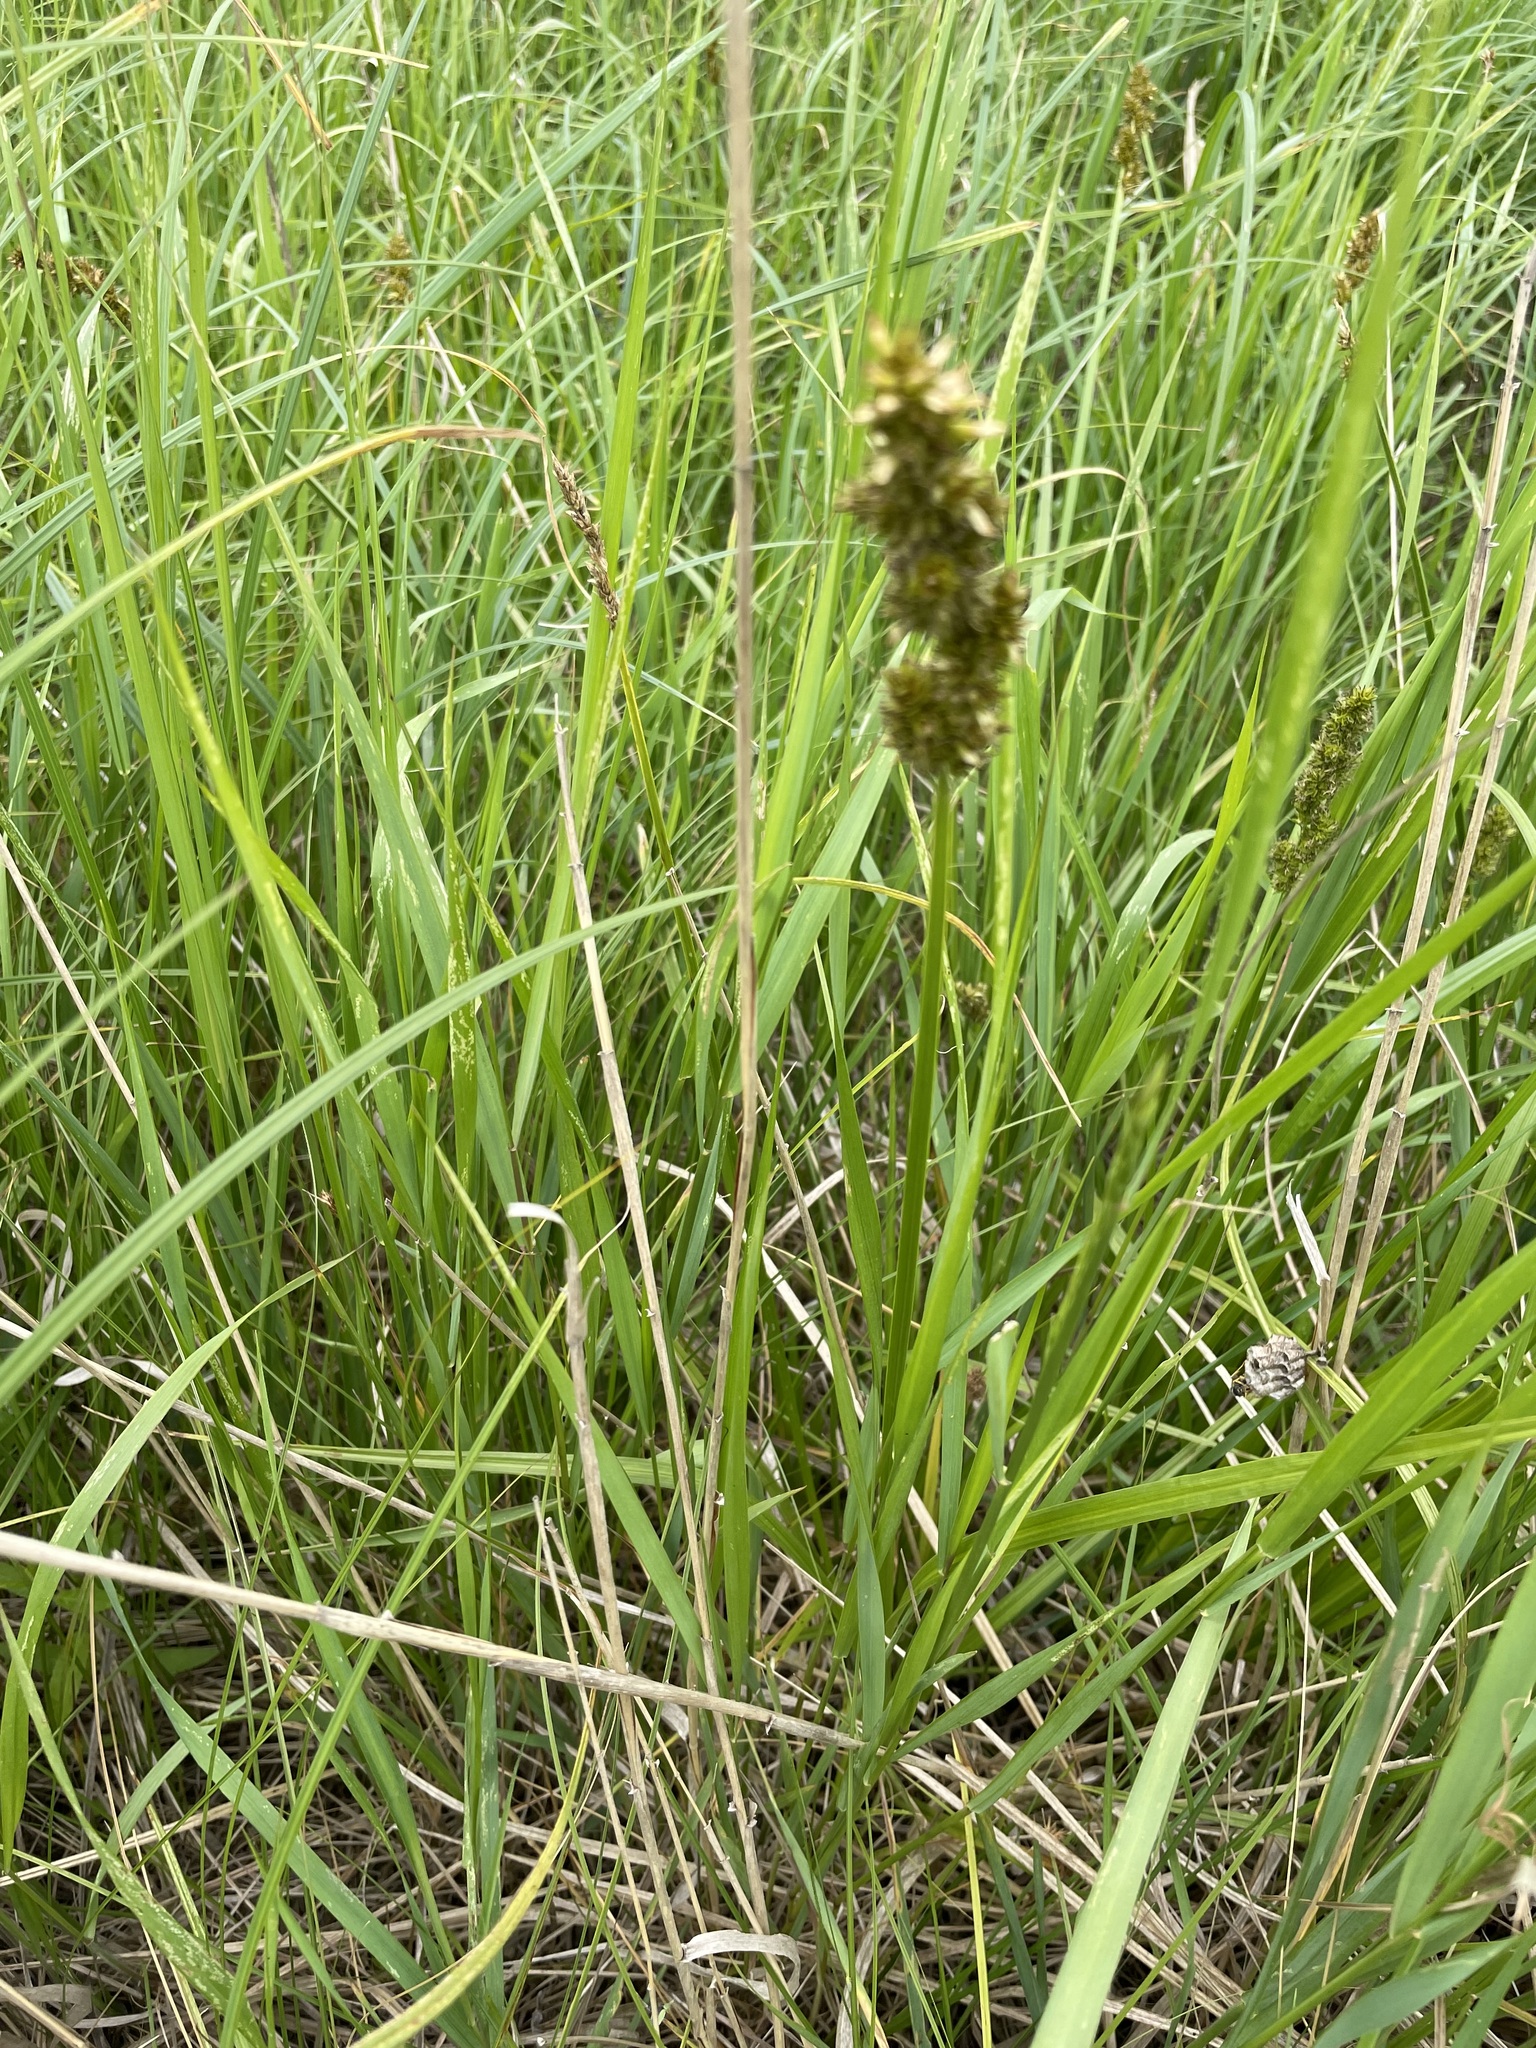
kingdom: Plantae
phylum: Tracheophyta
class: Liliopsida
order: Poales
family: Cyperaceae
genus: Carex
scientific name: Carex vulpina
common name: True fox-sedge
